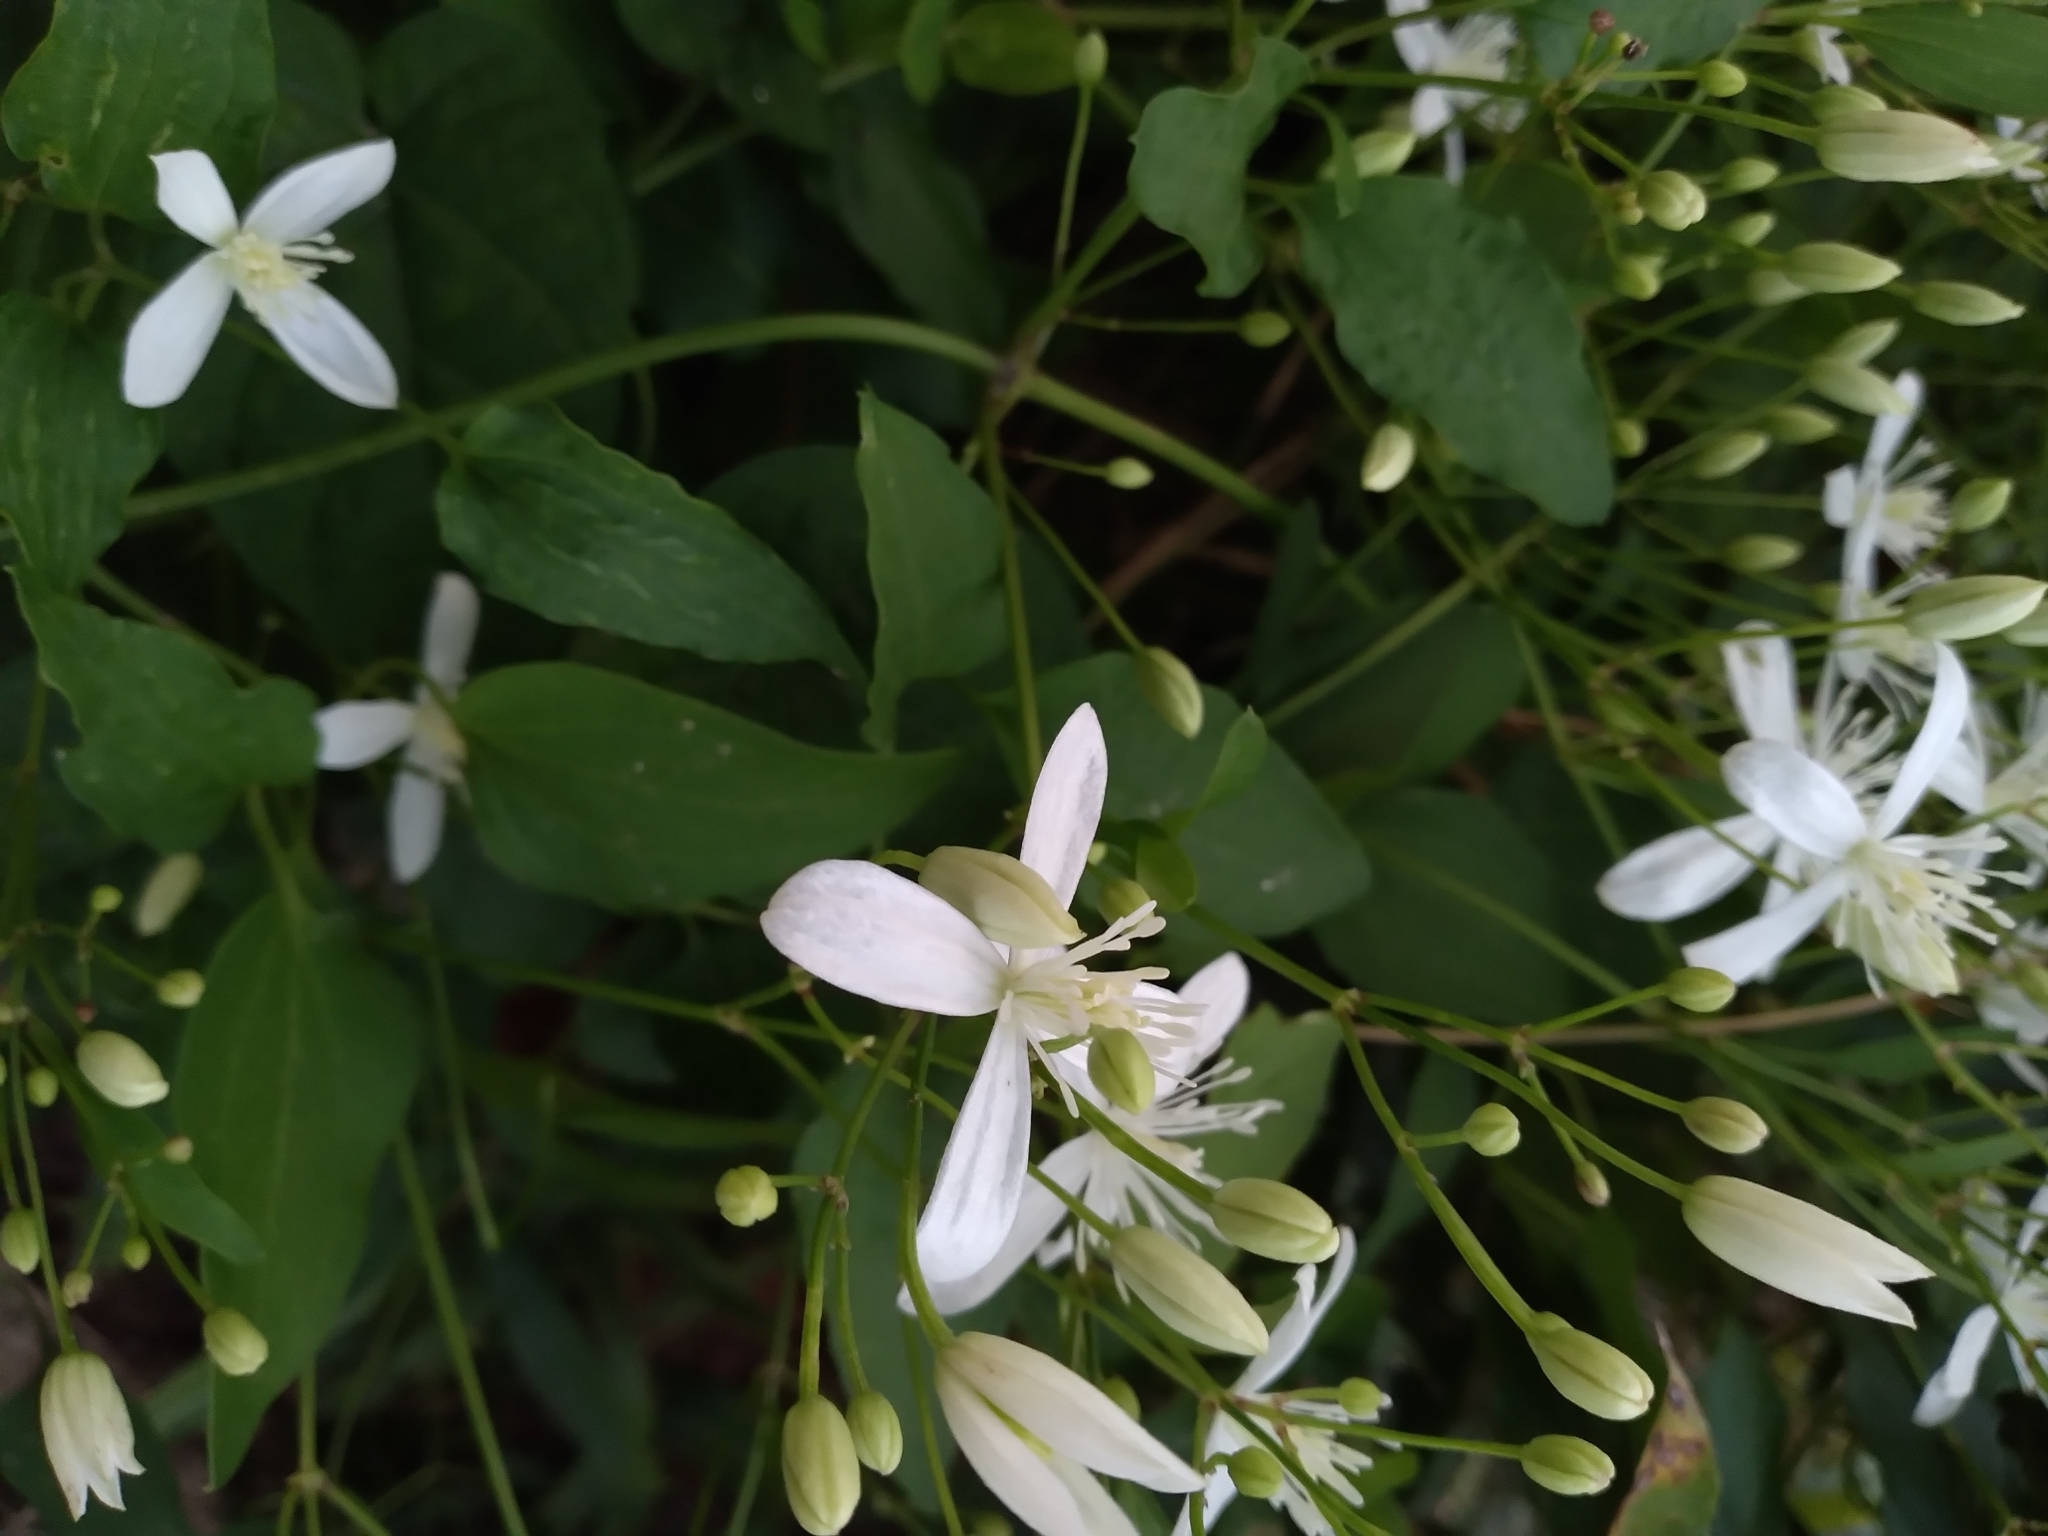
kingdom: Plantae
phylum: Tracheophyta
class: Magnoliopsida
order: Ranunculales
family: Ranunculaceae
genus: Clematis
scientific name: Clematis terniflora
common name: Sweet autumn clematis
